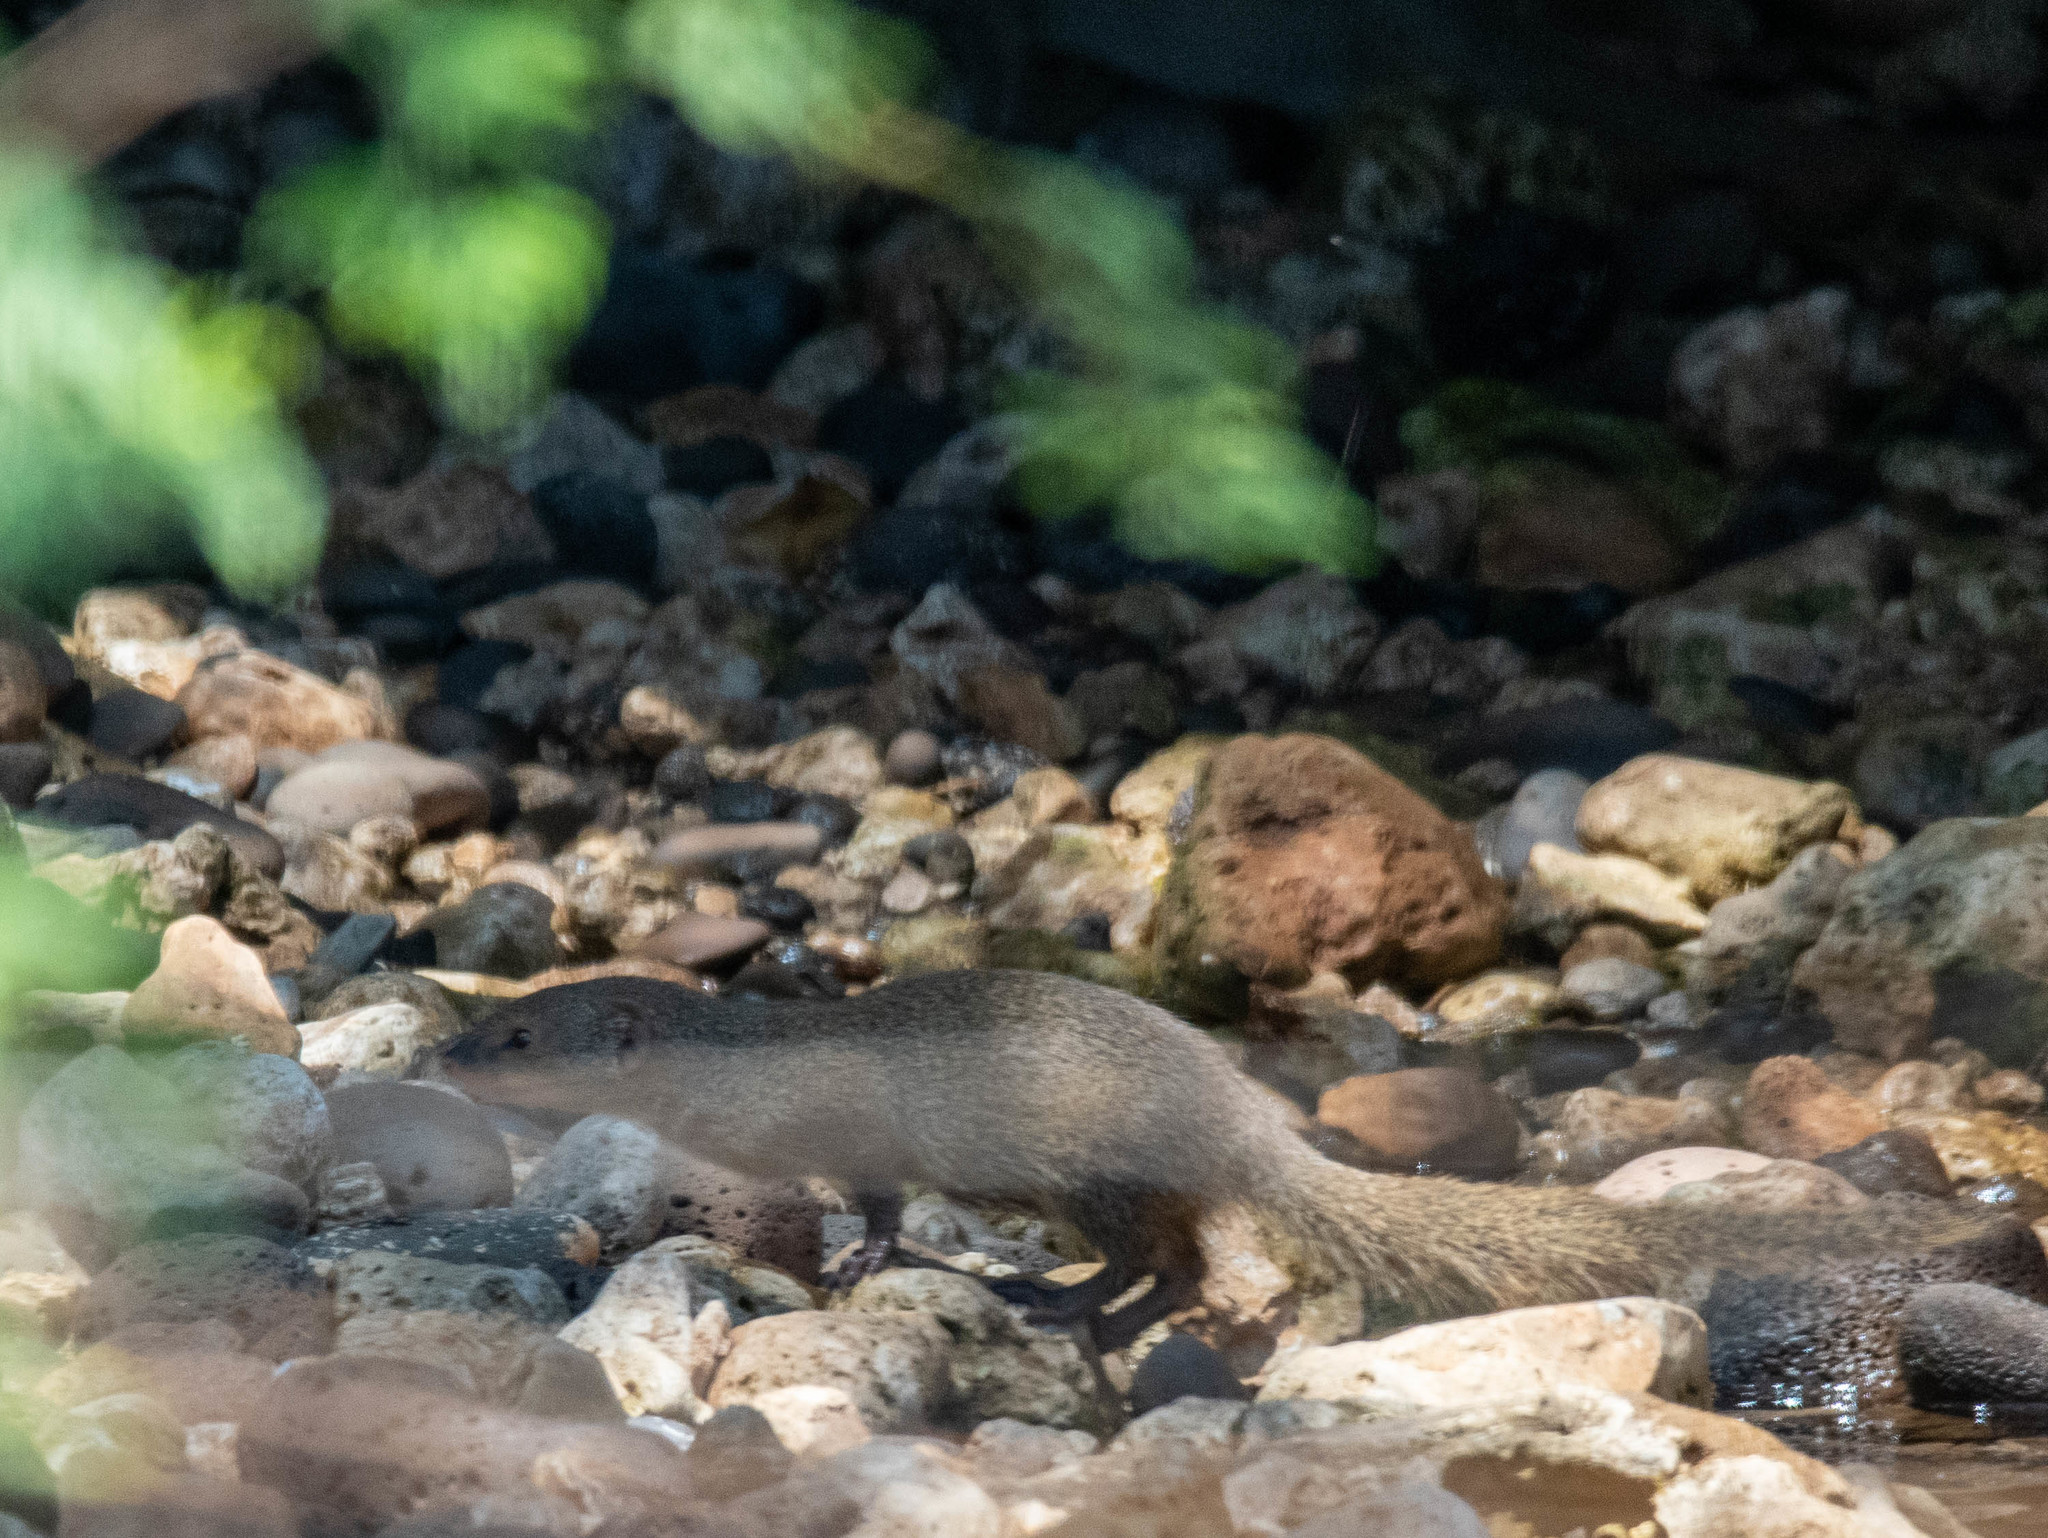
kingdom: Animalia
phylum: Chordata
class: Mammalia
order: Carnivora
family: Herpestidae
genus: Herpestes
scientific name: Herpestes javanicus
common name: Small asian mongoose
